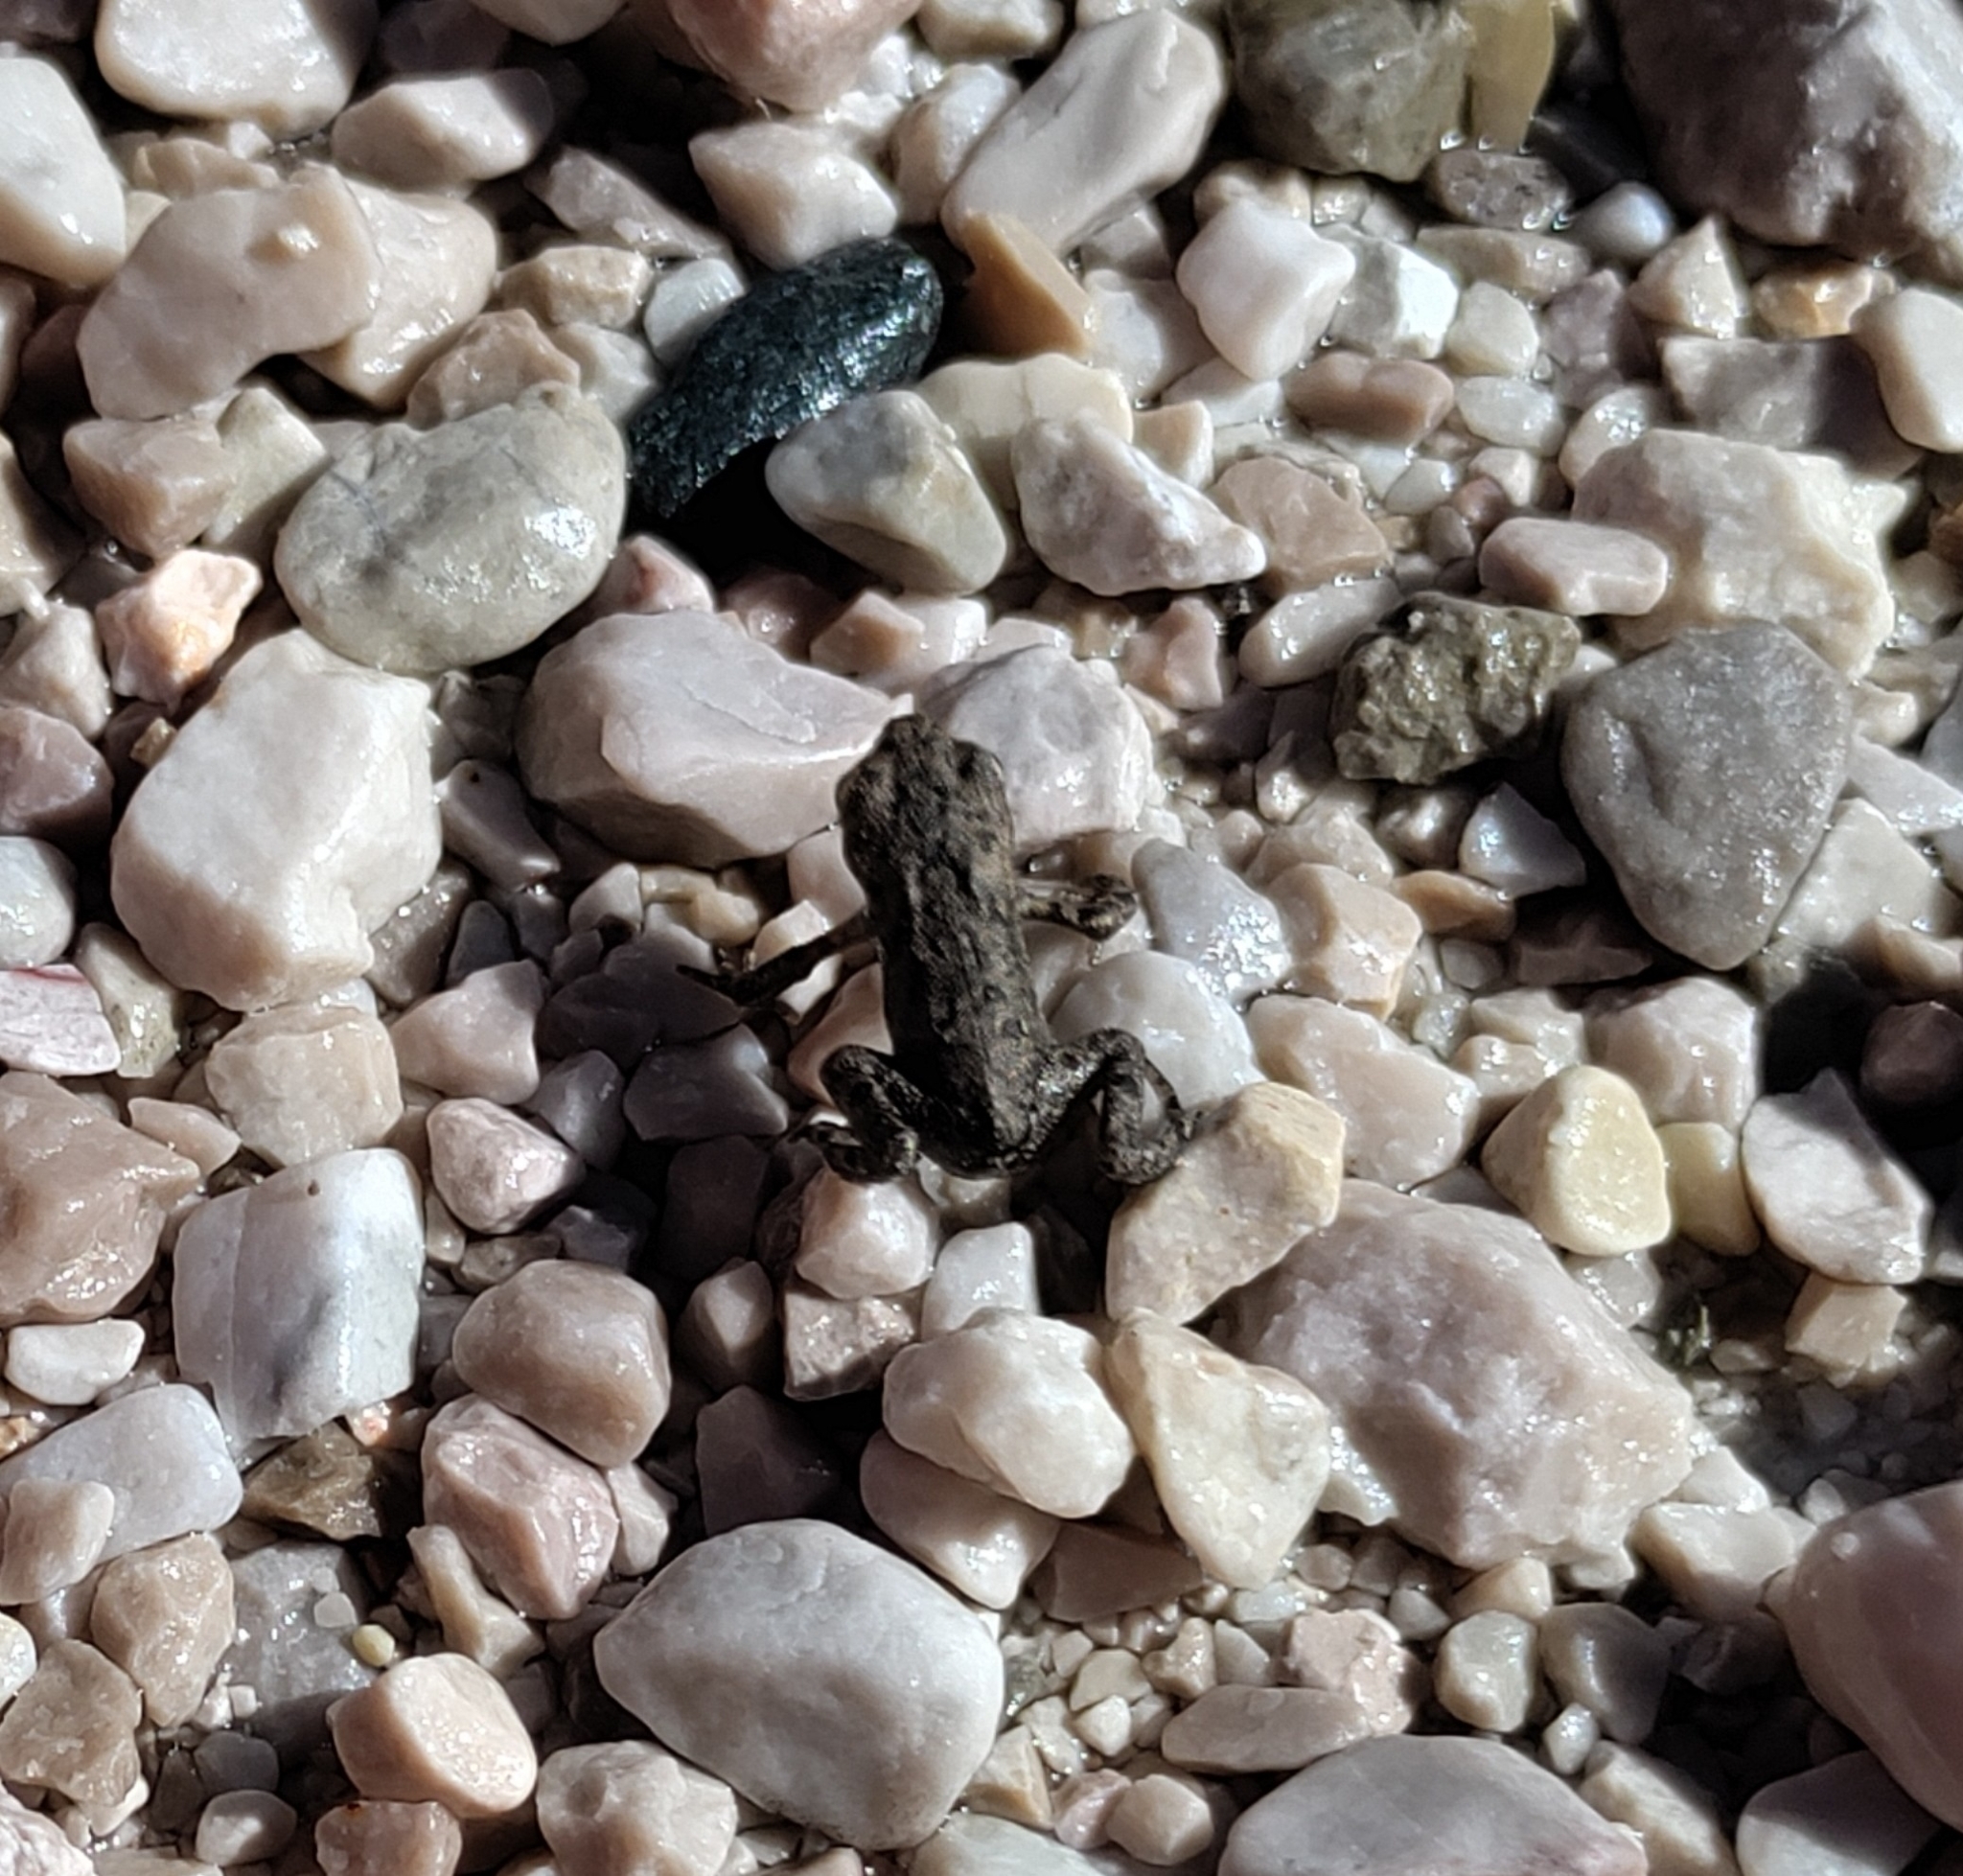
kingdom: Animalia
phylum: Chordata
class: Amphibia
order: Anura
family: Bufonidae
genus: Bufo
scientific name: Bufo bufo
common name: Common toad
